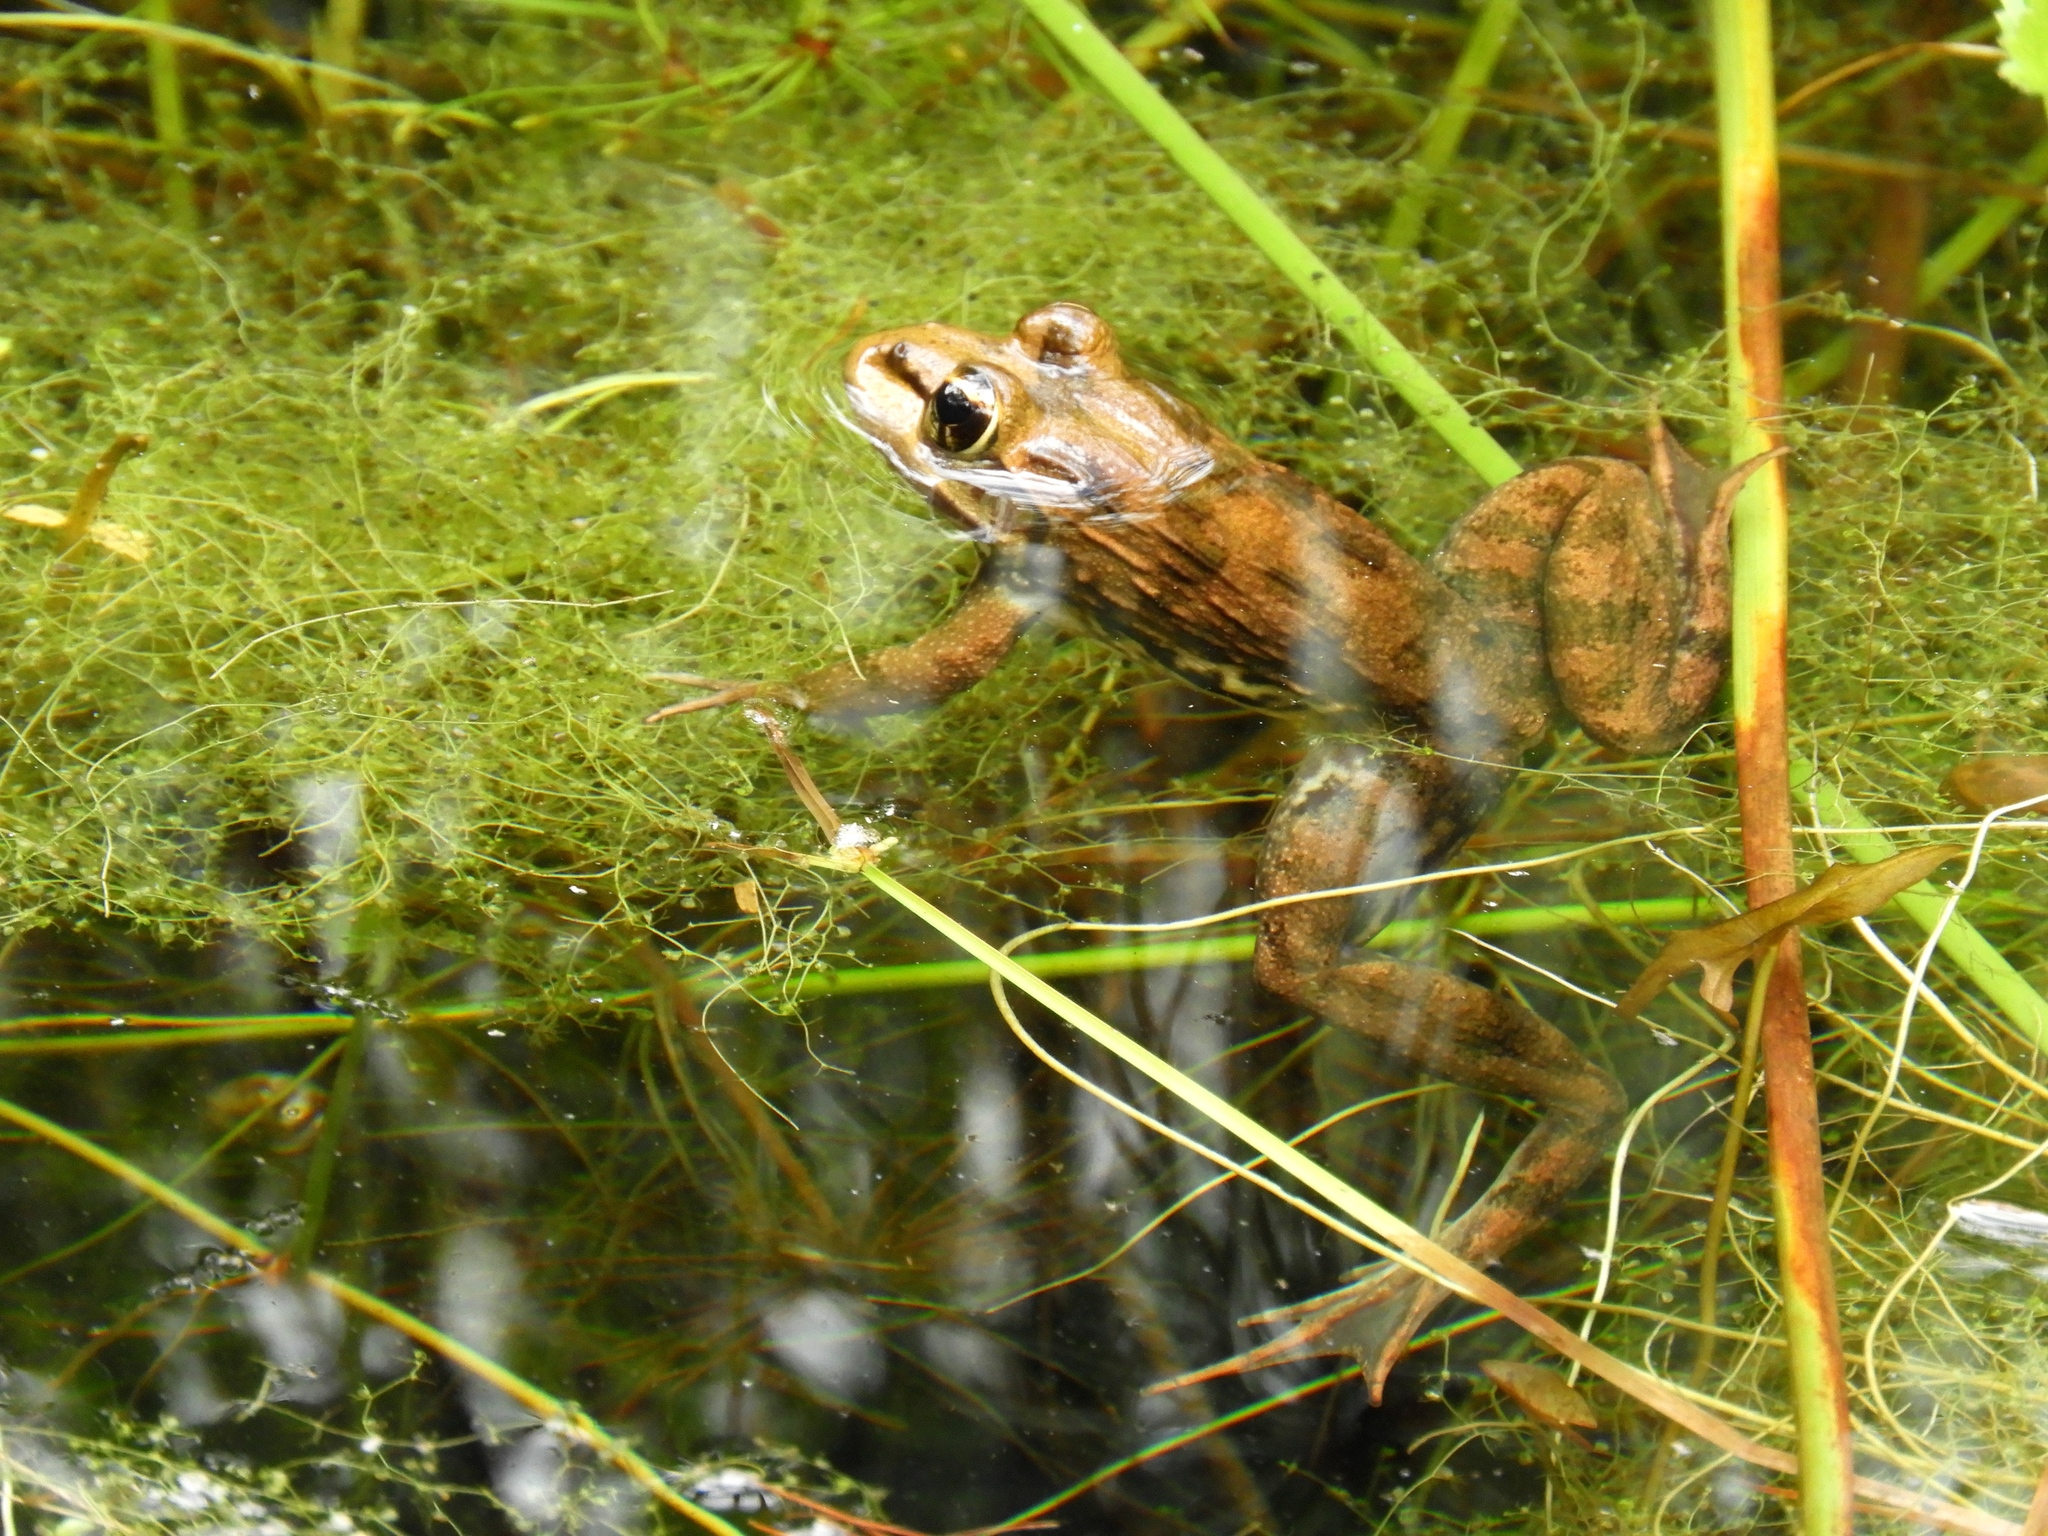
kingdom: Animalia
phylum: Chordata
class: Amphibia
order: Anura
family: Pyxicephalidae
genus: Amietia
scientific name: Amietia fuscigula
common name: Cape rana
